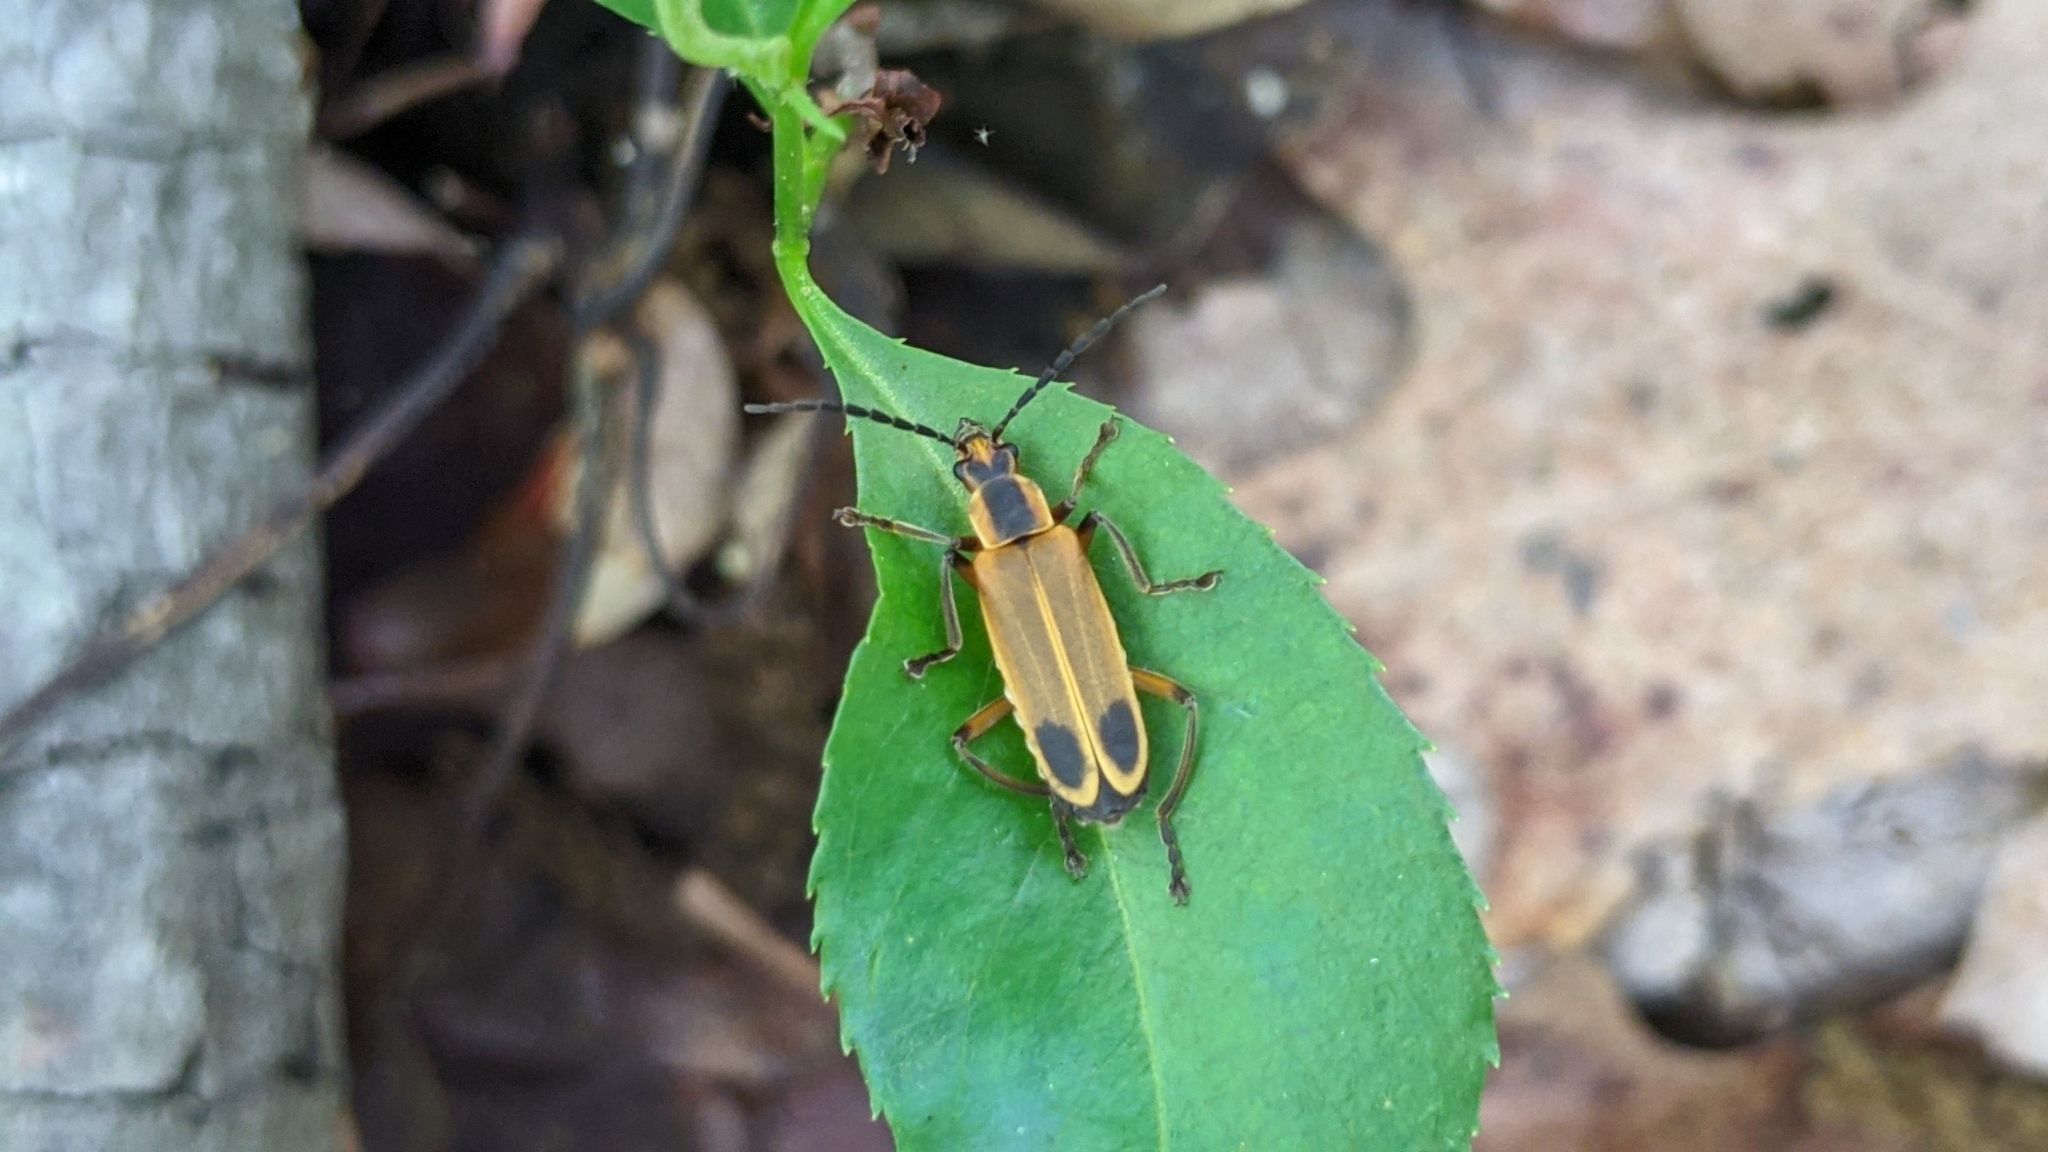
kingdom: Animalia
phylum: Arthropoda
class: Insecta
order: Coleoptera
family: Cantharidae
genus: Chauliognathus
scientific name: Chauliognathus marginatus
